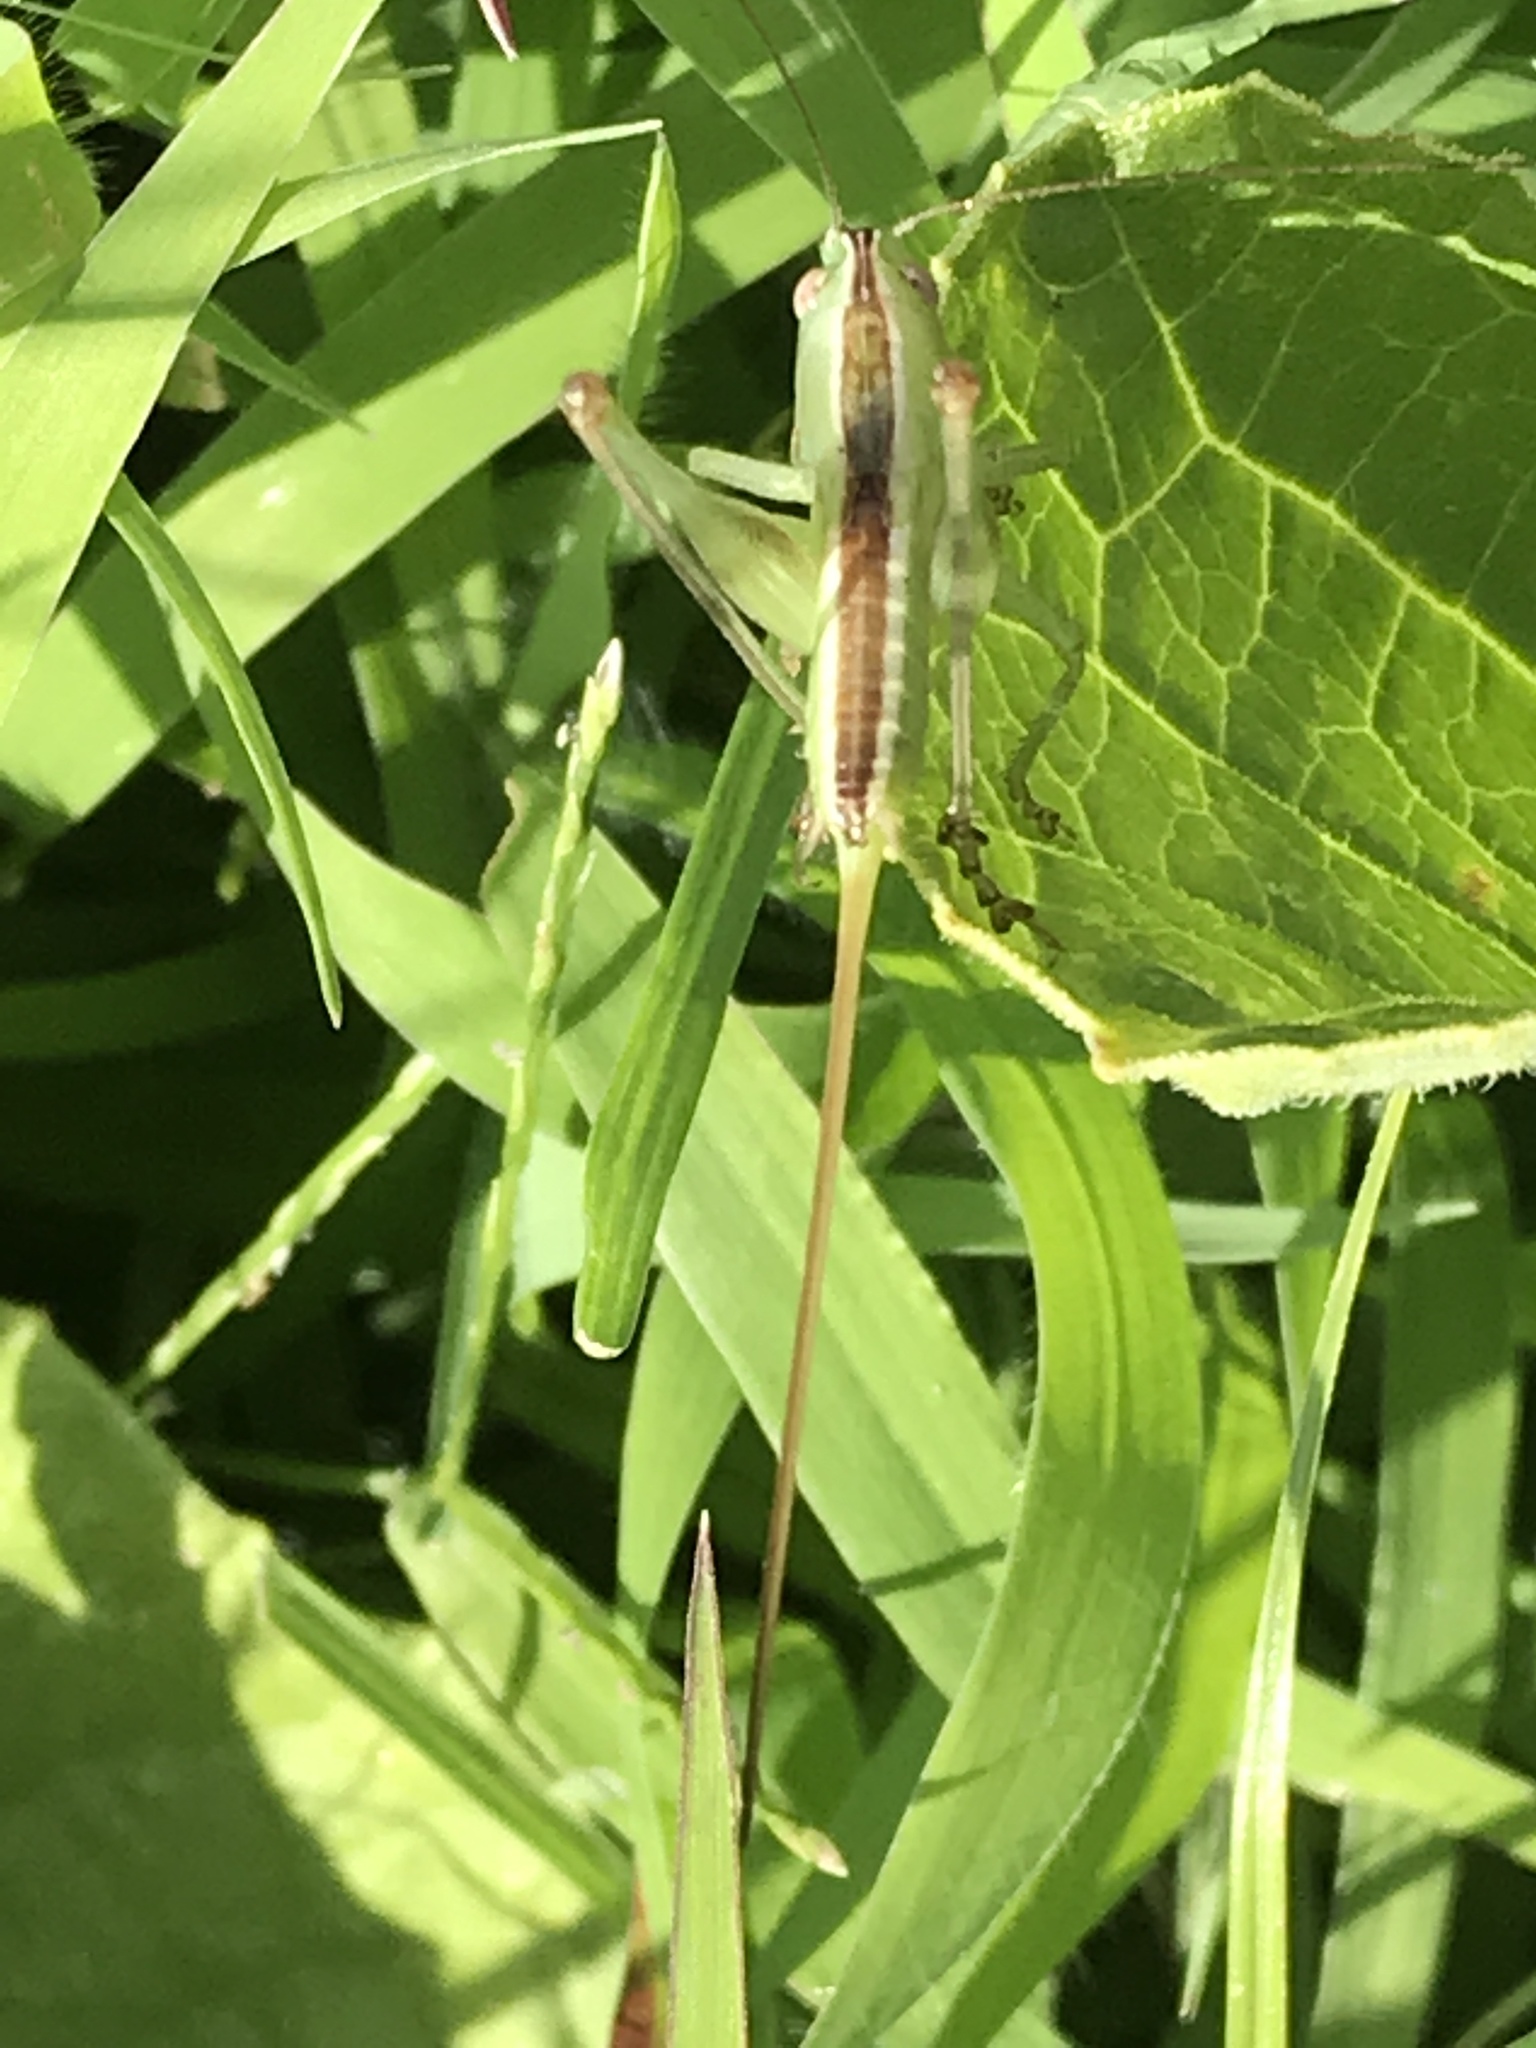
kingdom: Animalia
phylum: Arthropoda
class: Insecta
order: Orthoptera
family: Tettigoniidae
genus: Conocephalus
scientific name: Conocephalus strictus
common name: Straight-lanced katydid
